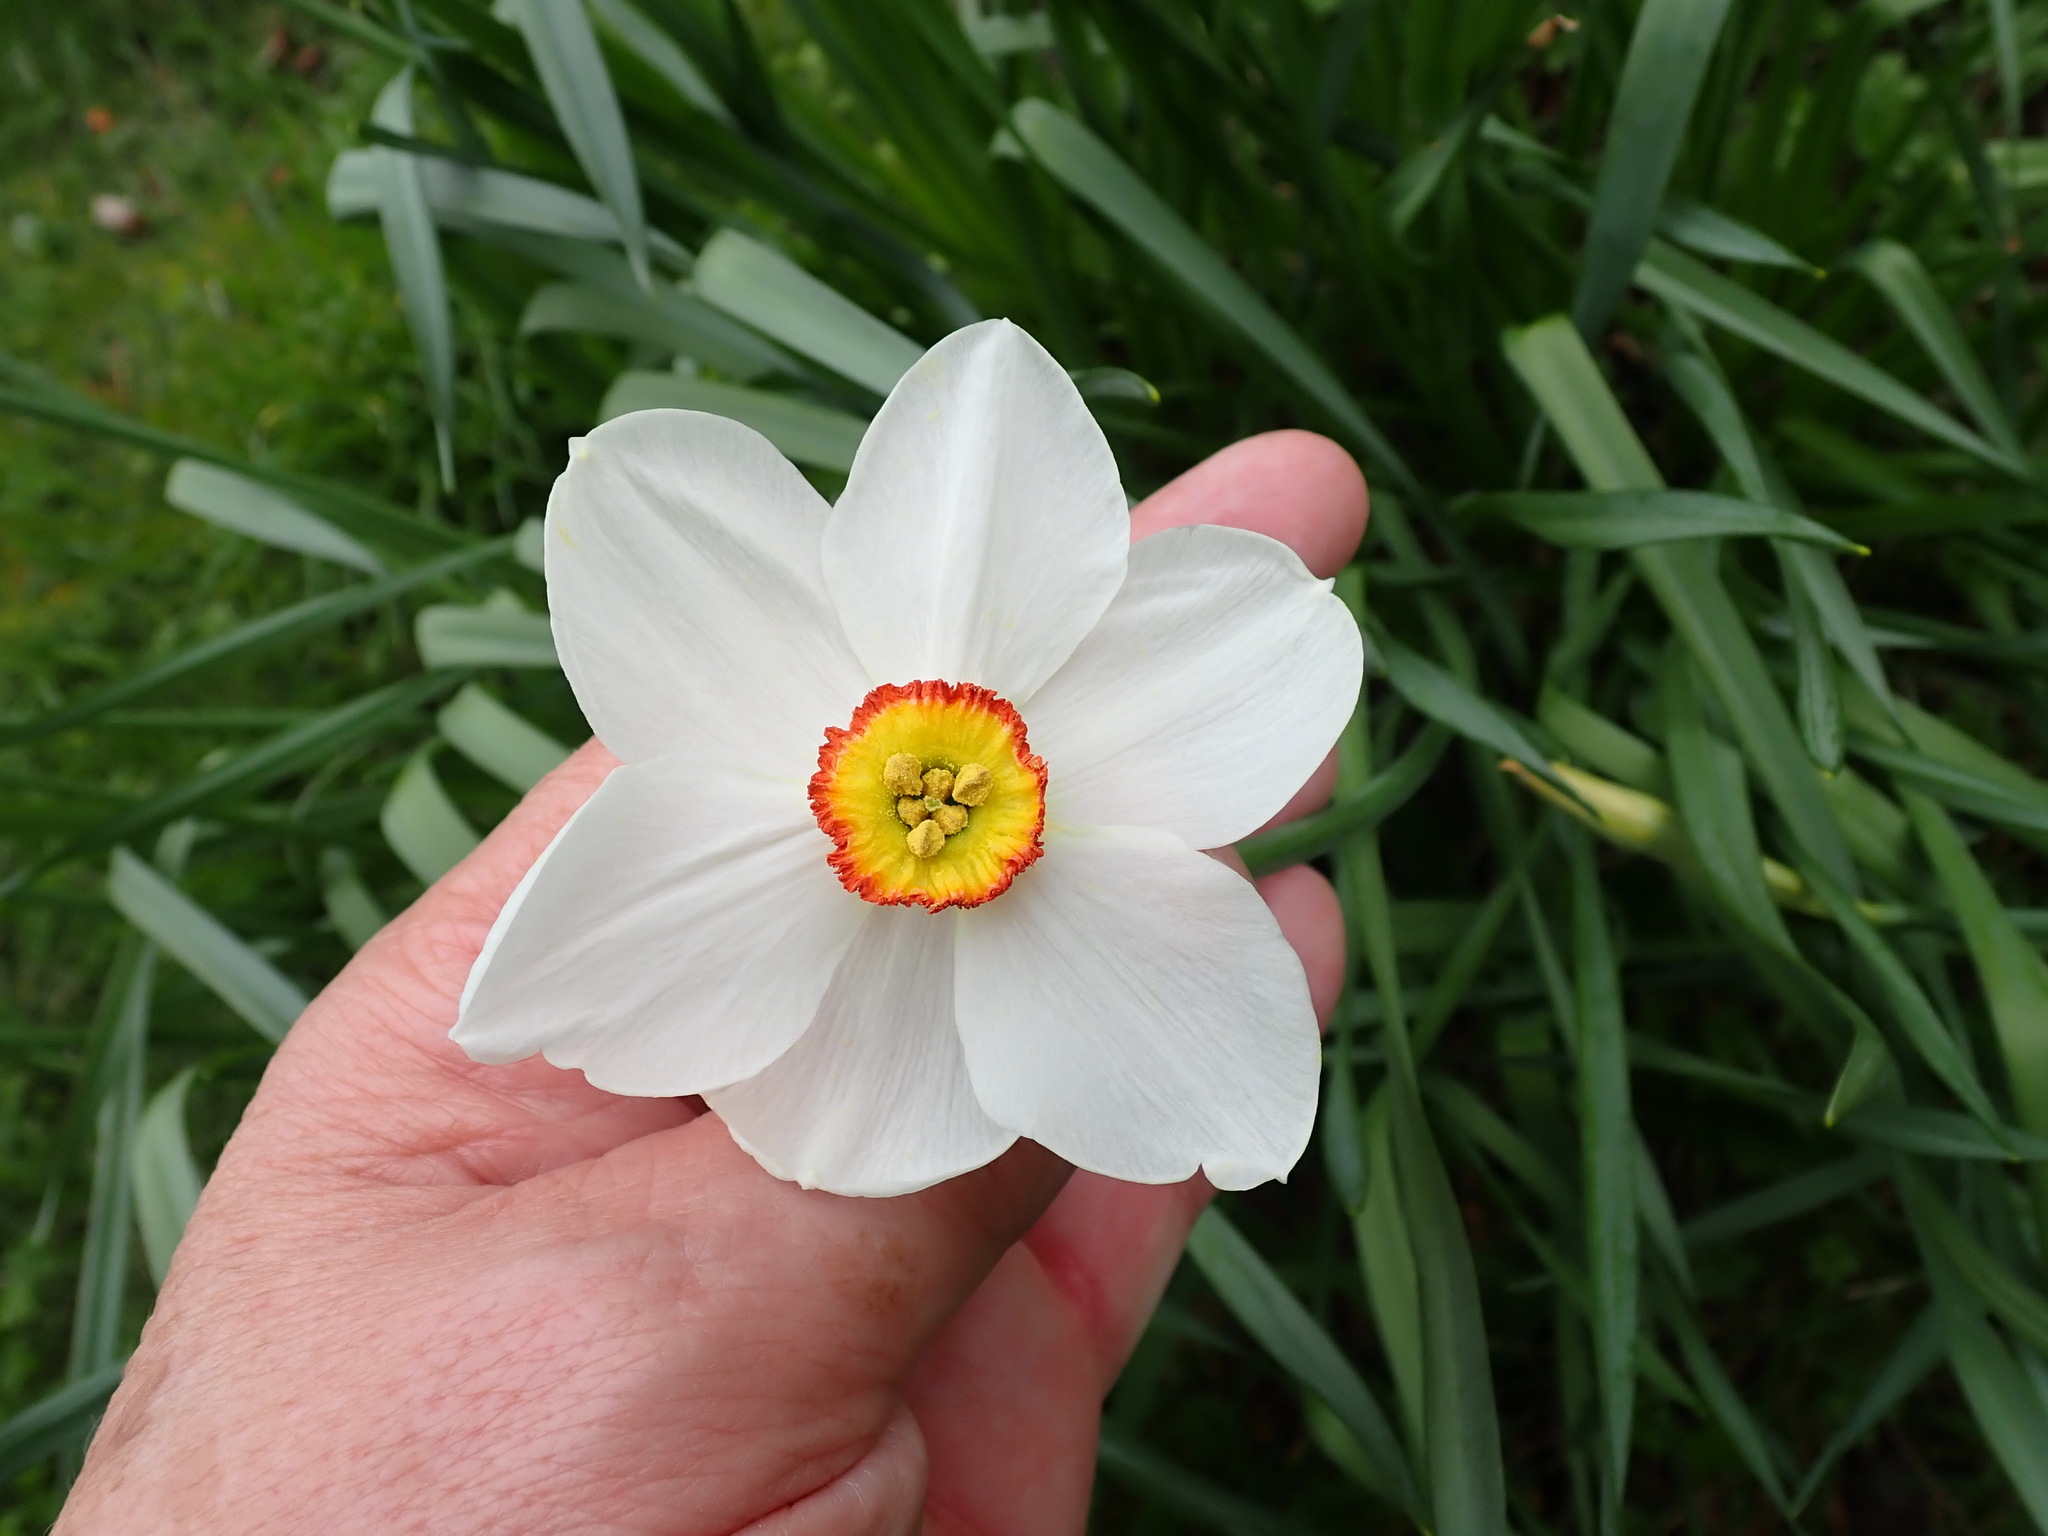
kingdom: Plantae
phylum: Tracheophyta
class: Liliopsida
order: Asparagales
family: Amaryllidaceae
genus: Narcissus
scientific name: Narcissus poeticus
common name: Pheasant's-eye daffodil
